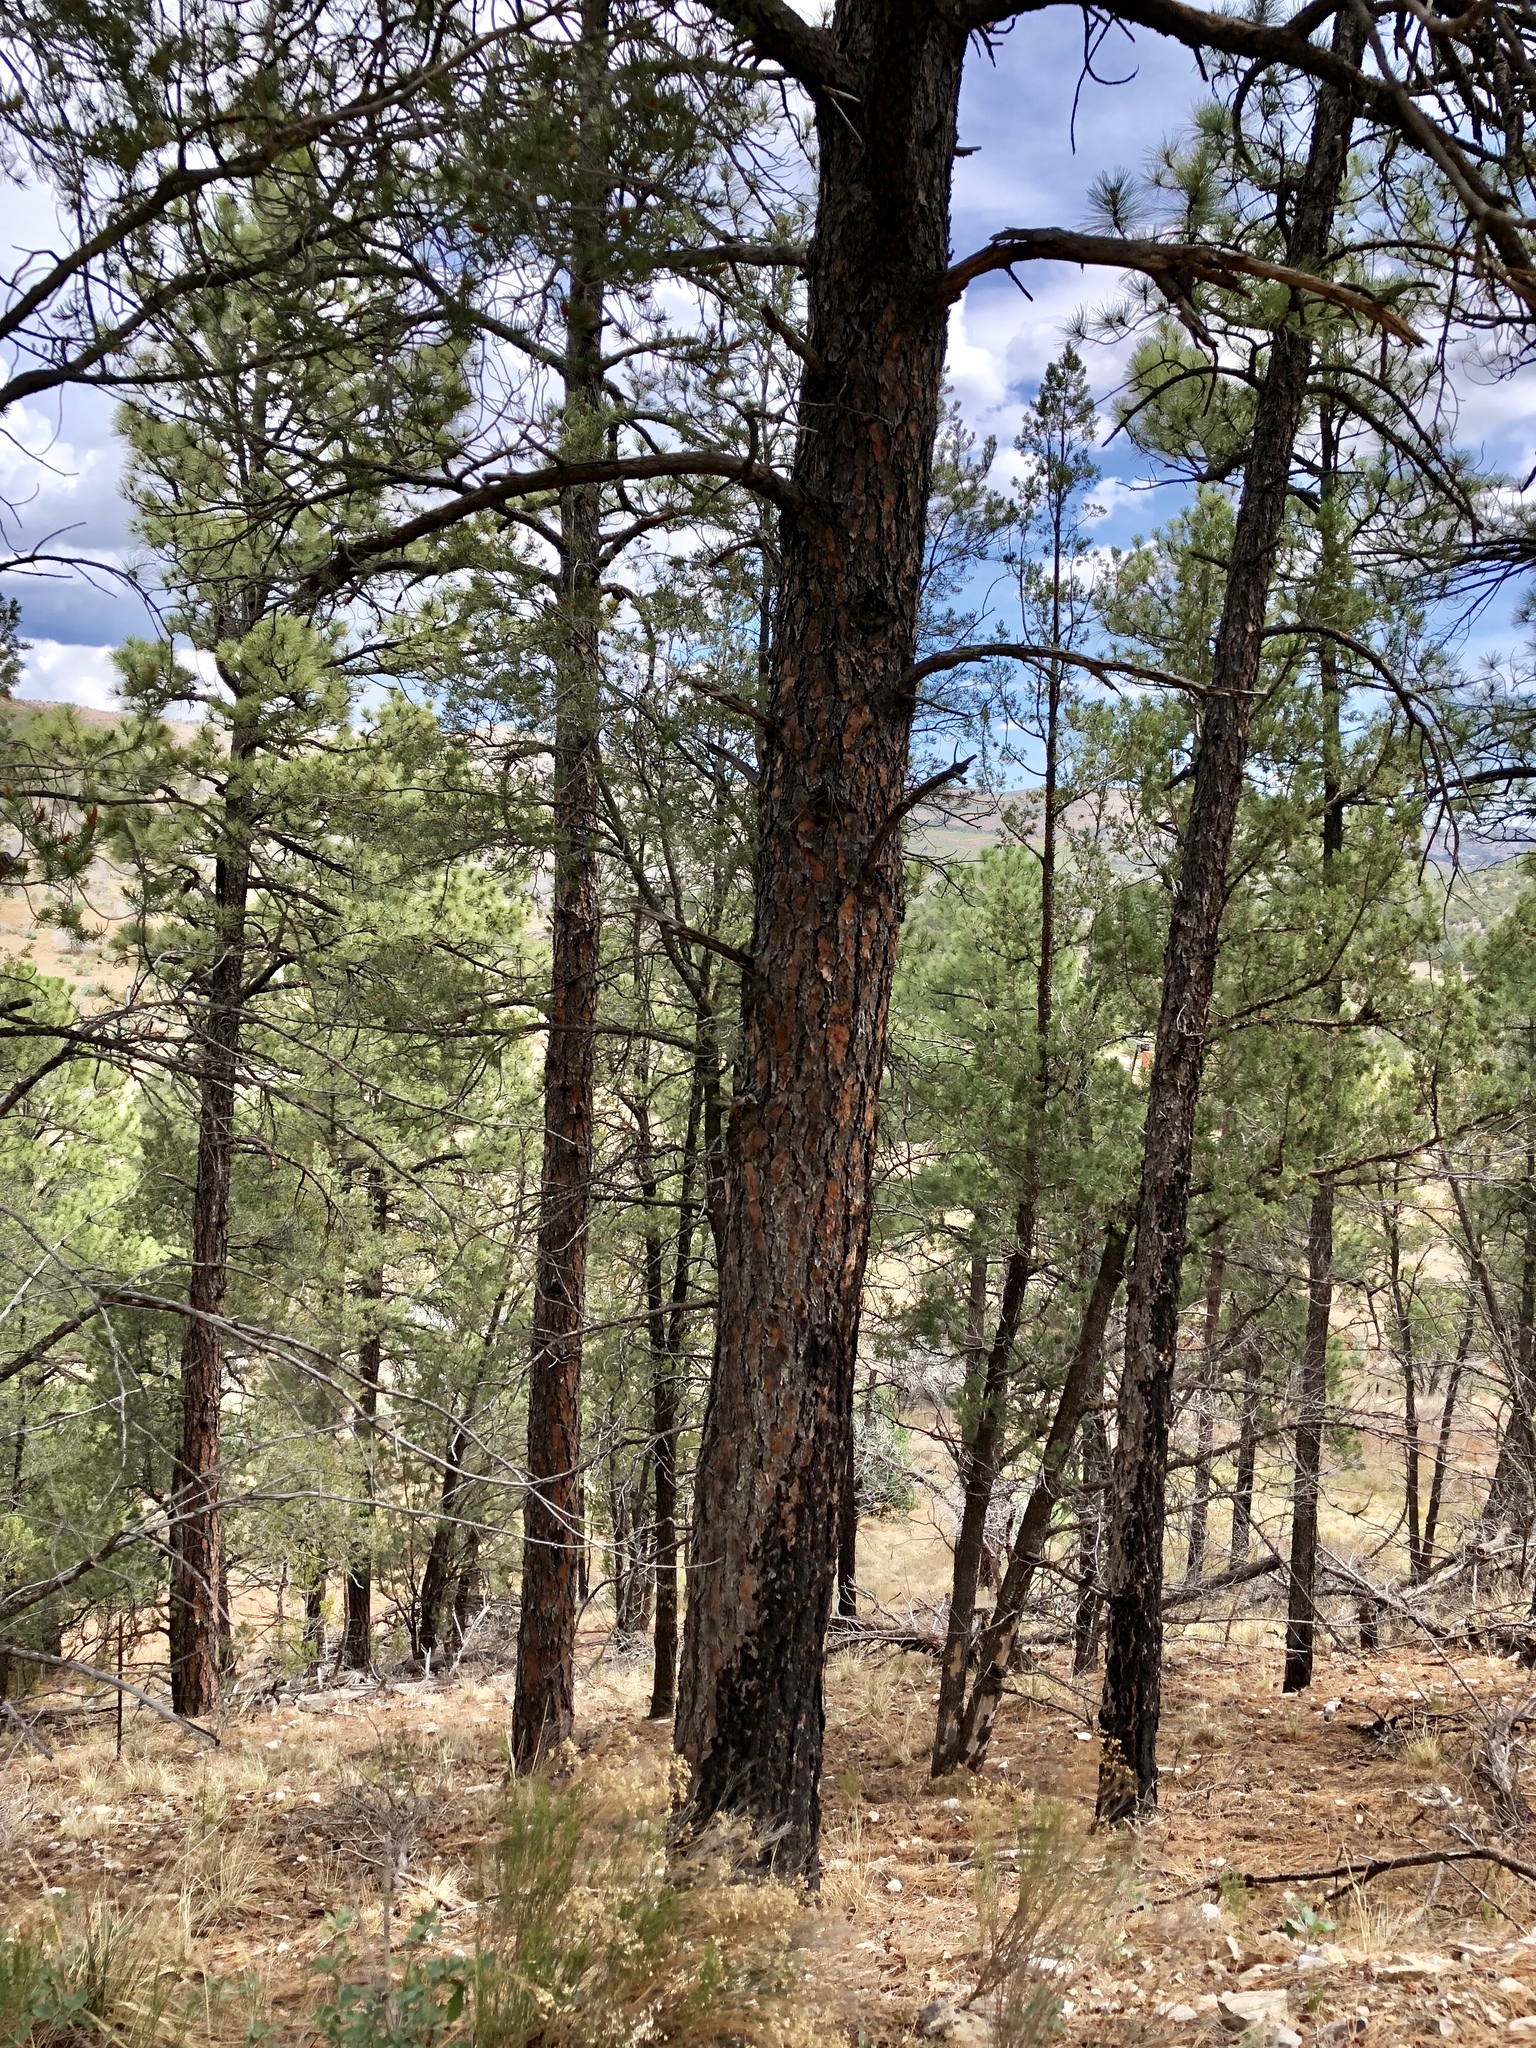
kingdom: Plantae
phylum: Tracheophyta
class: Pinopsida
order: Pinales
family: Pinaceae
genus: Pinus
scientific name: Pinus ponderosa
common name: Western yellow-pine
